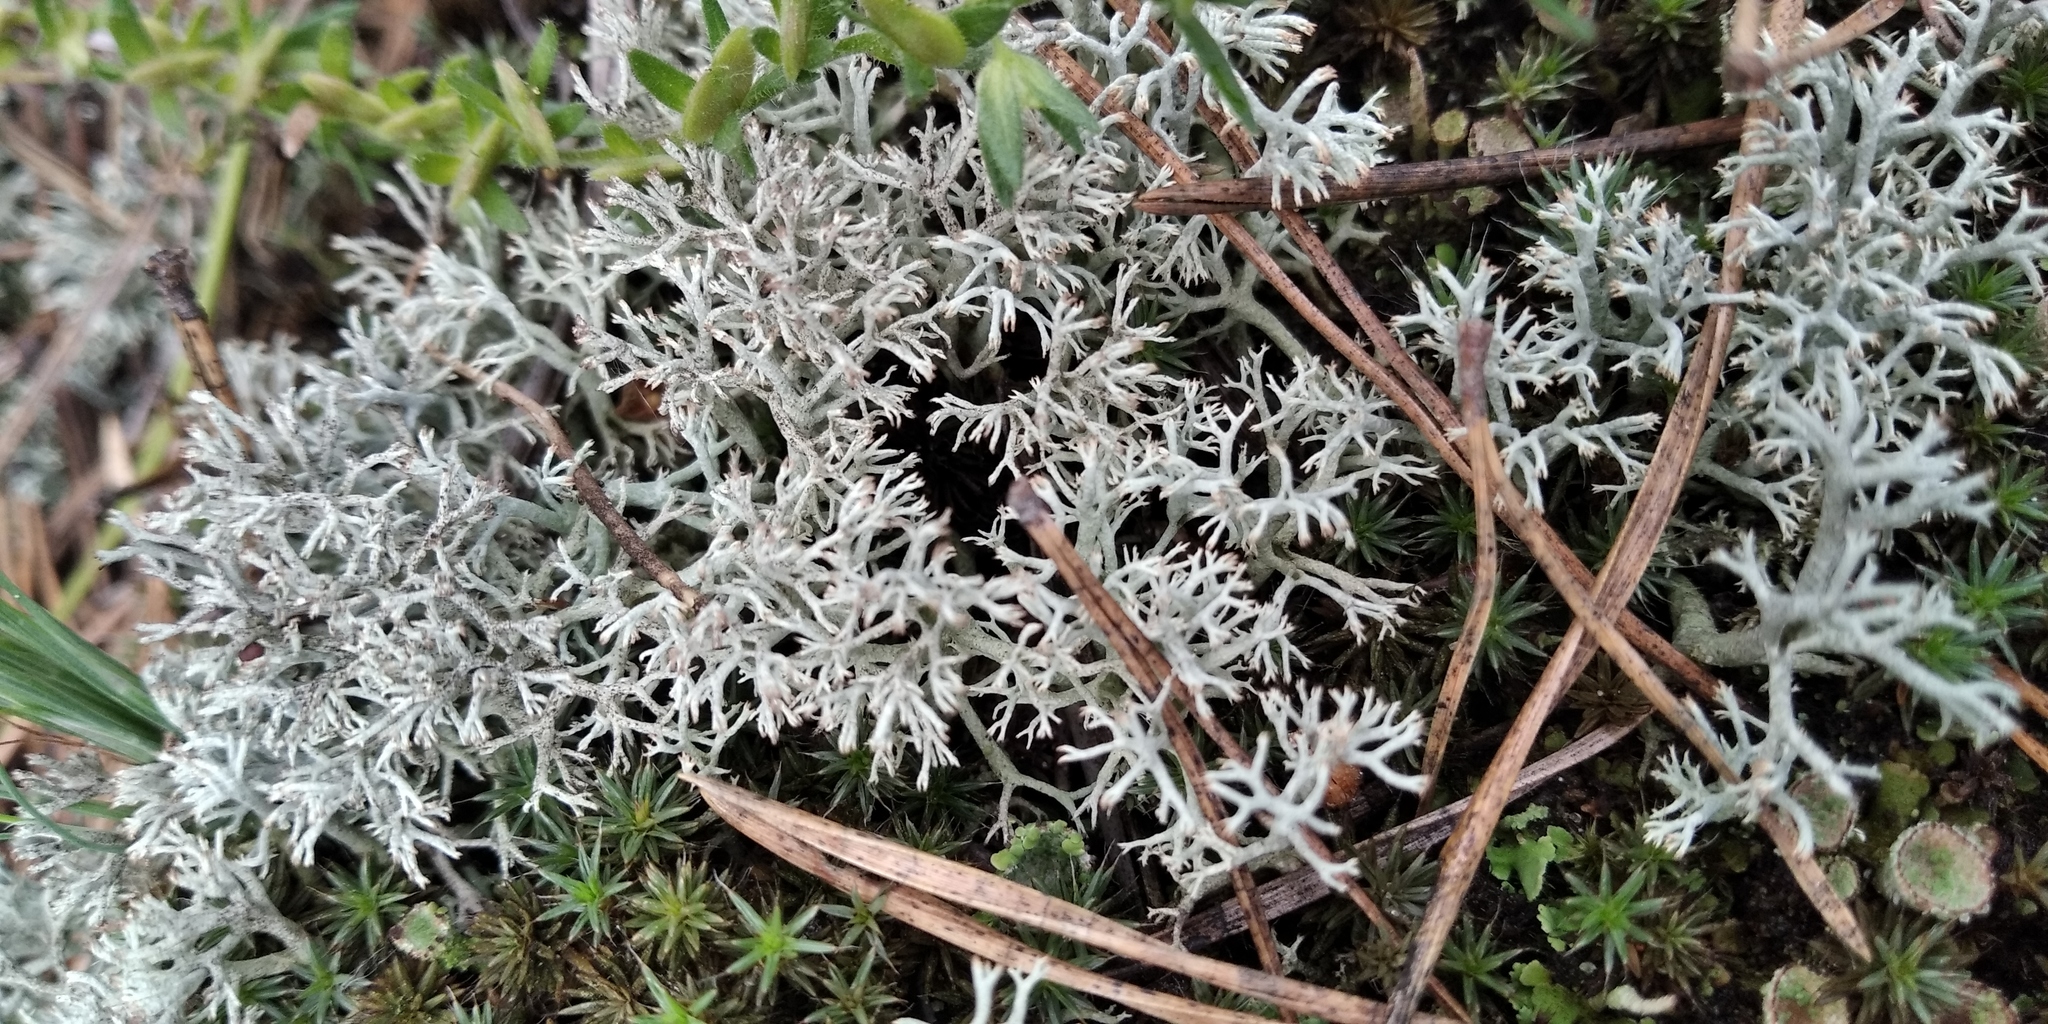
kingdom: Fungi
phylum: Ascomycota
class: Lecanoromycetes
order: Lecanorales
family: Cladoniaceae
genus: Cladonia
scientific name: Cladonia arbuscula
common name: Reindeer lichen
